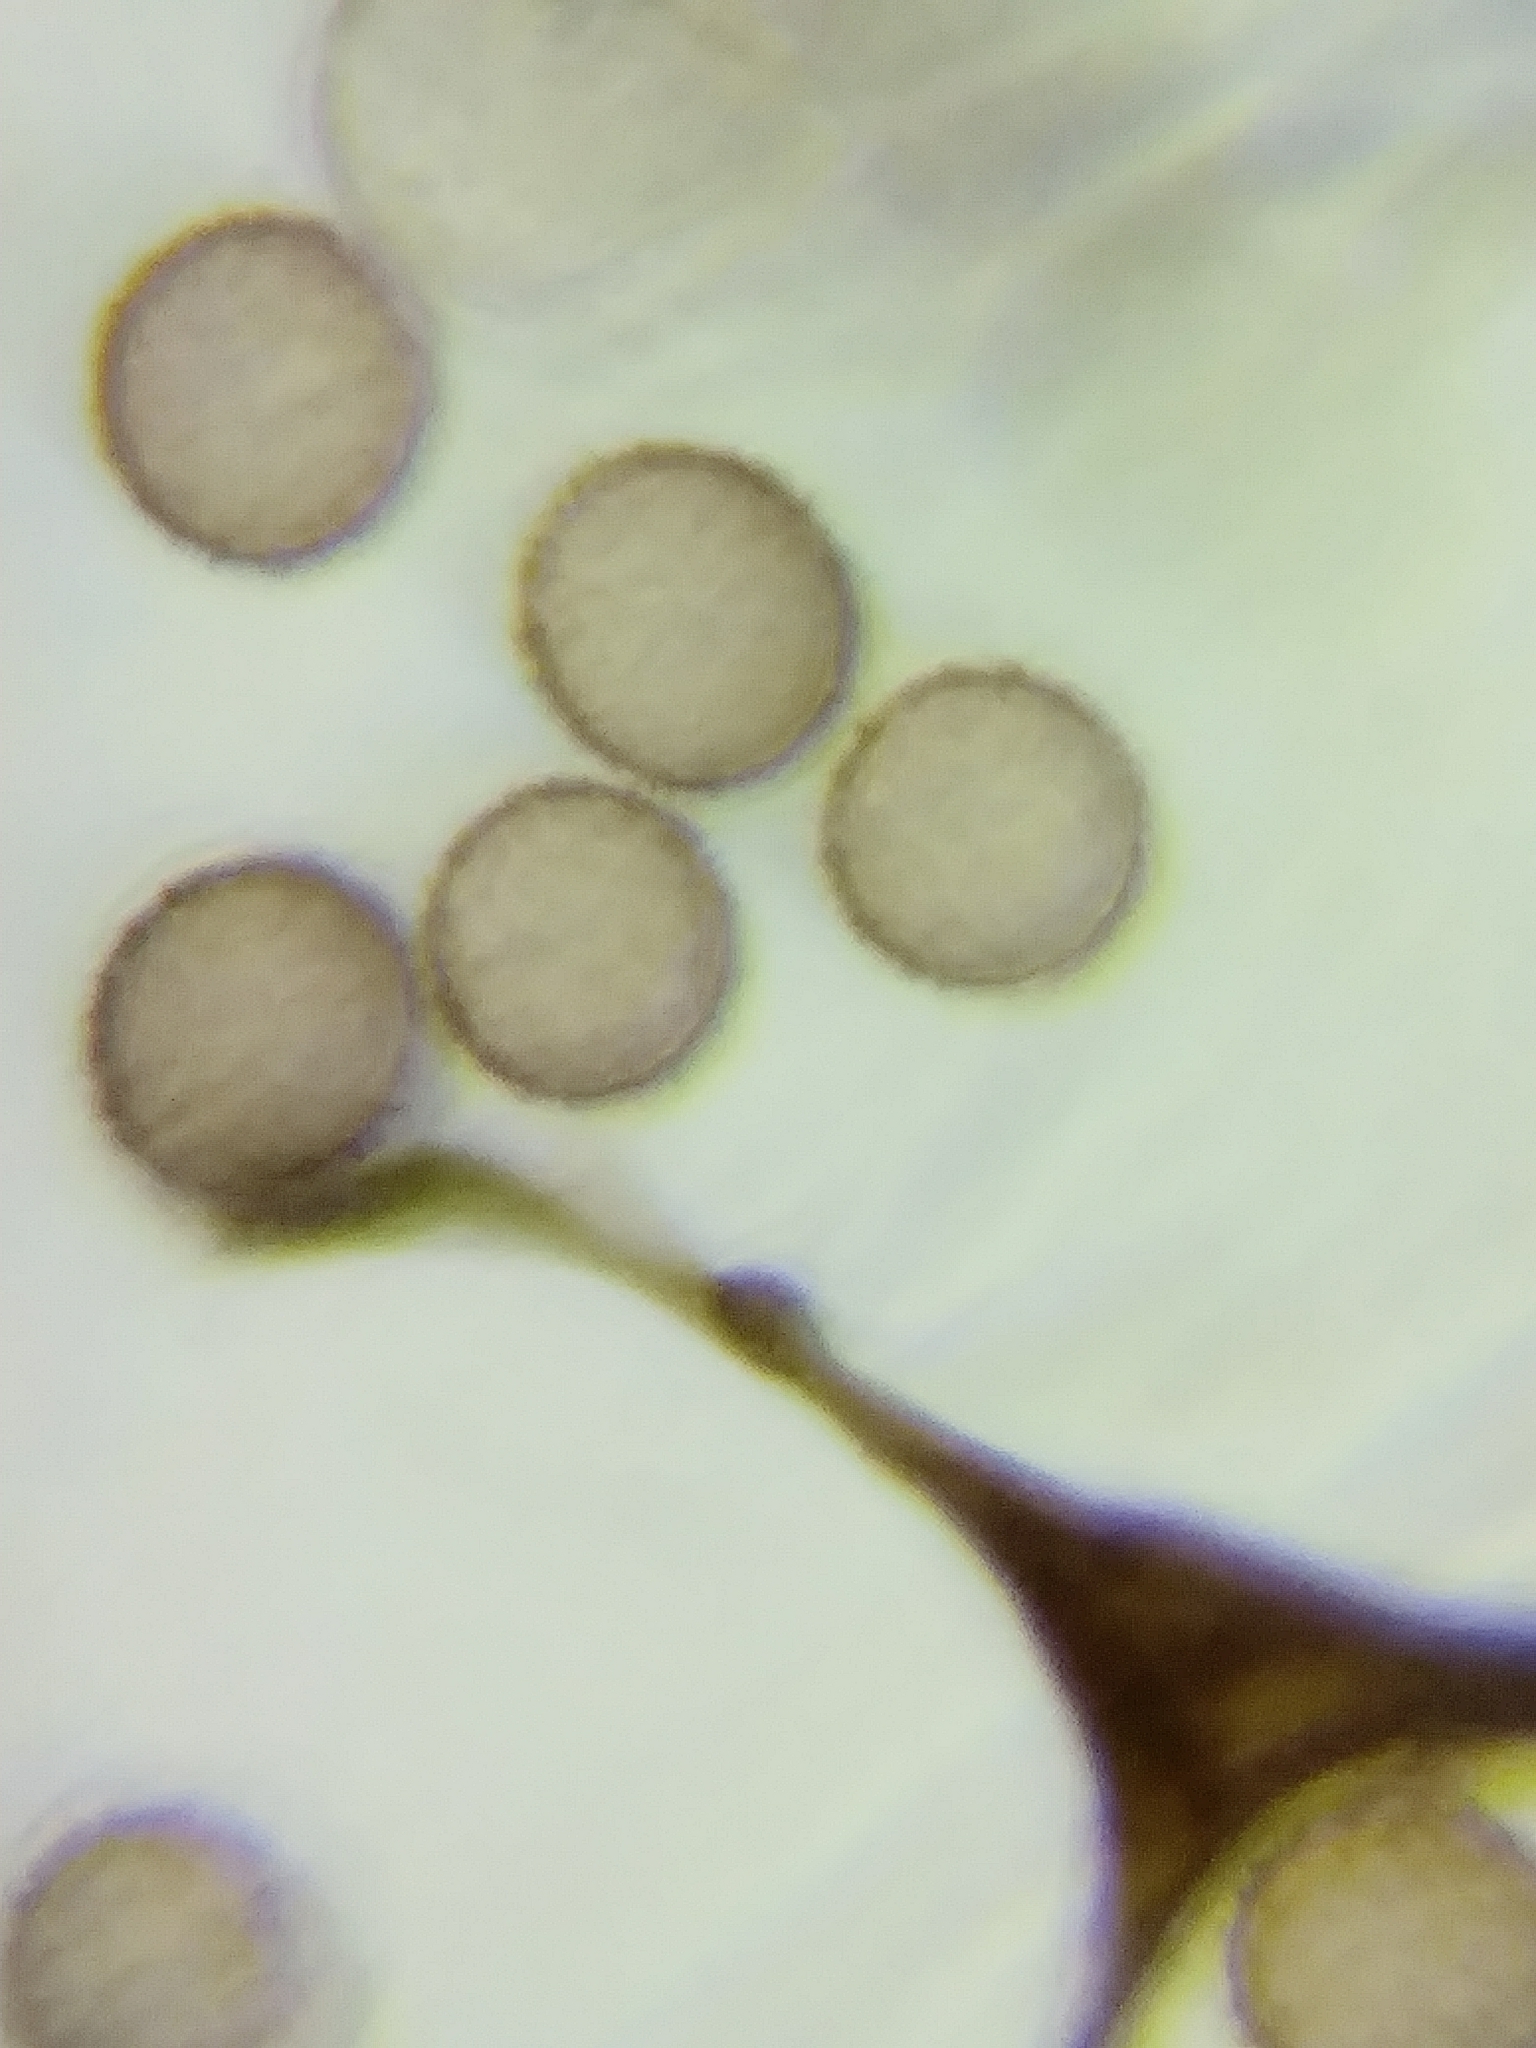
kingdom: Protozoa
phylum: Mycetozoa
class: Myxomycetes
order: Stemonitidales
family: Stemonitidaceae
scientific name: Stemonitidaceae
